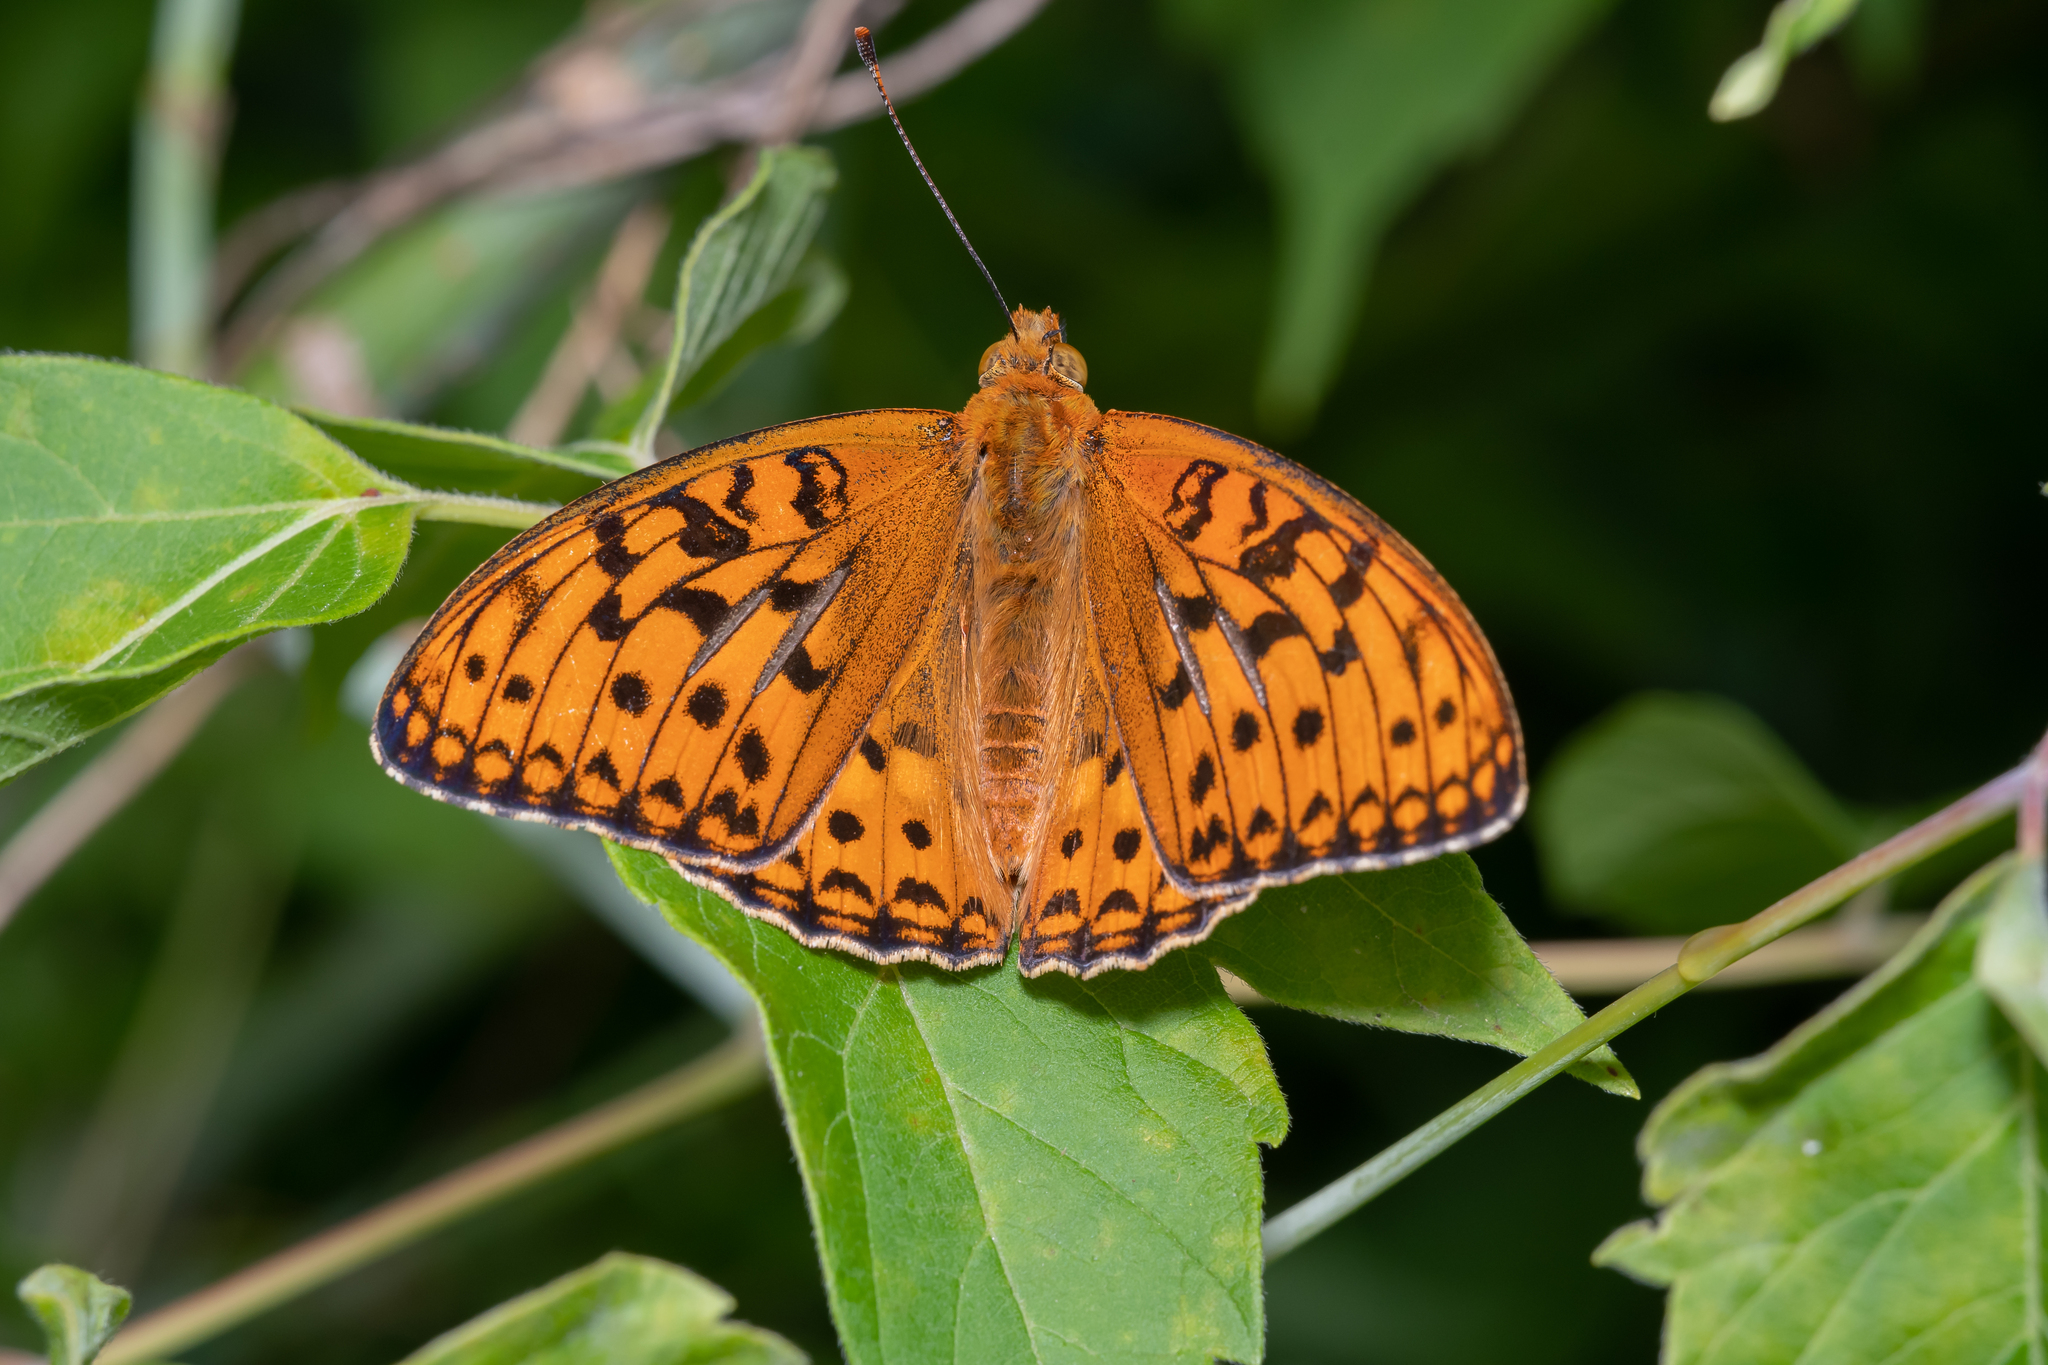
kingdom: Animalia
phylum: Arthropoda
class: Insecta
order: Lepidoptera
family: Nymphalidae
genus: Fabriciana
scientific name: Fabriciana adippe
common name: High brown fritillary
